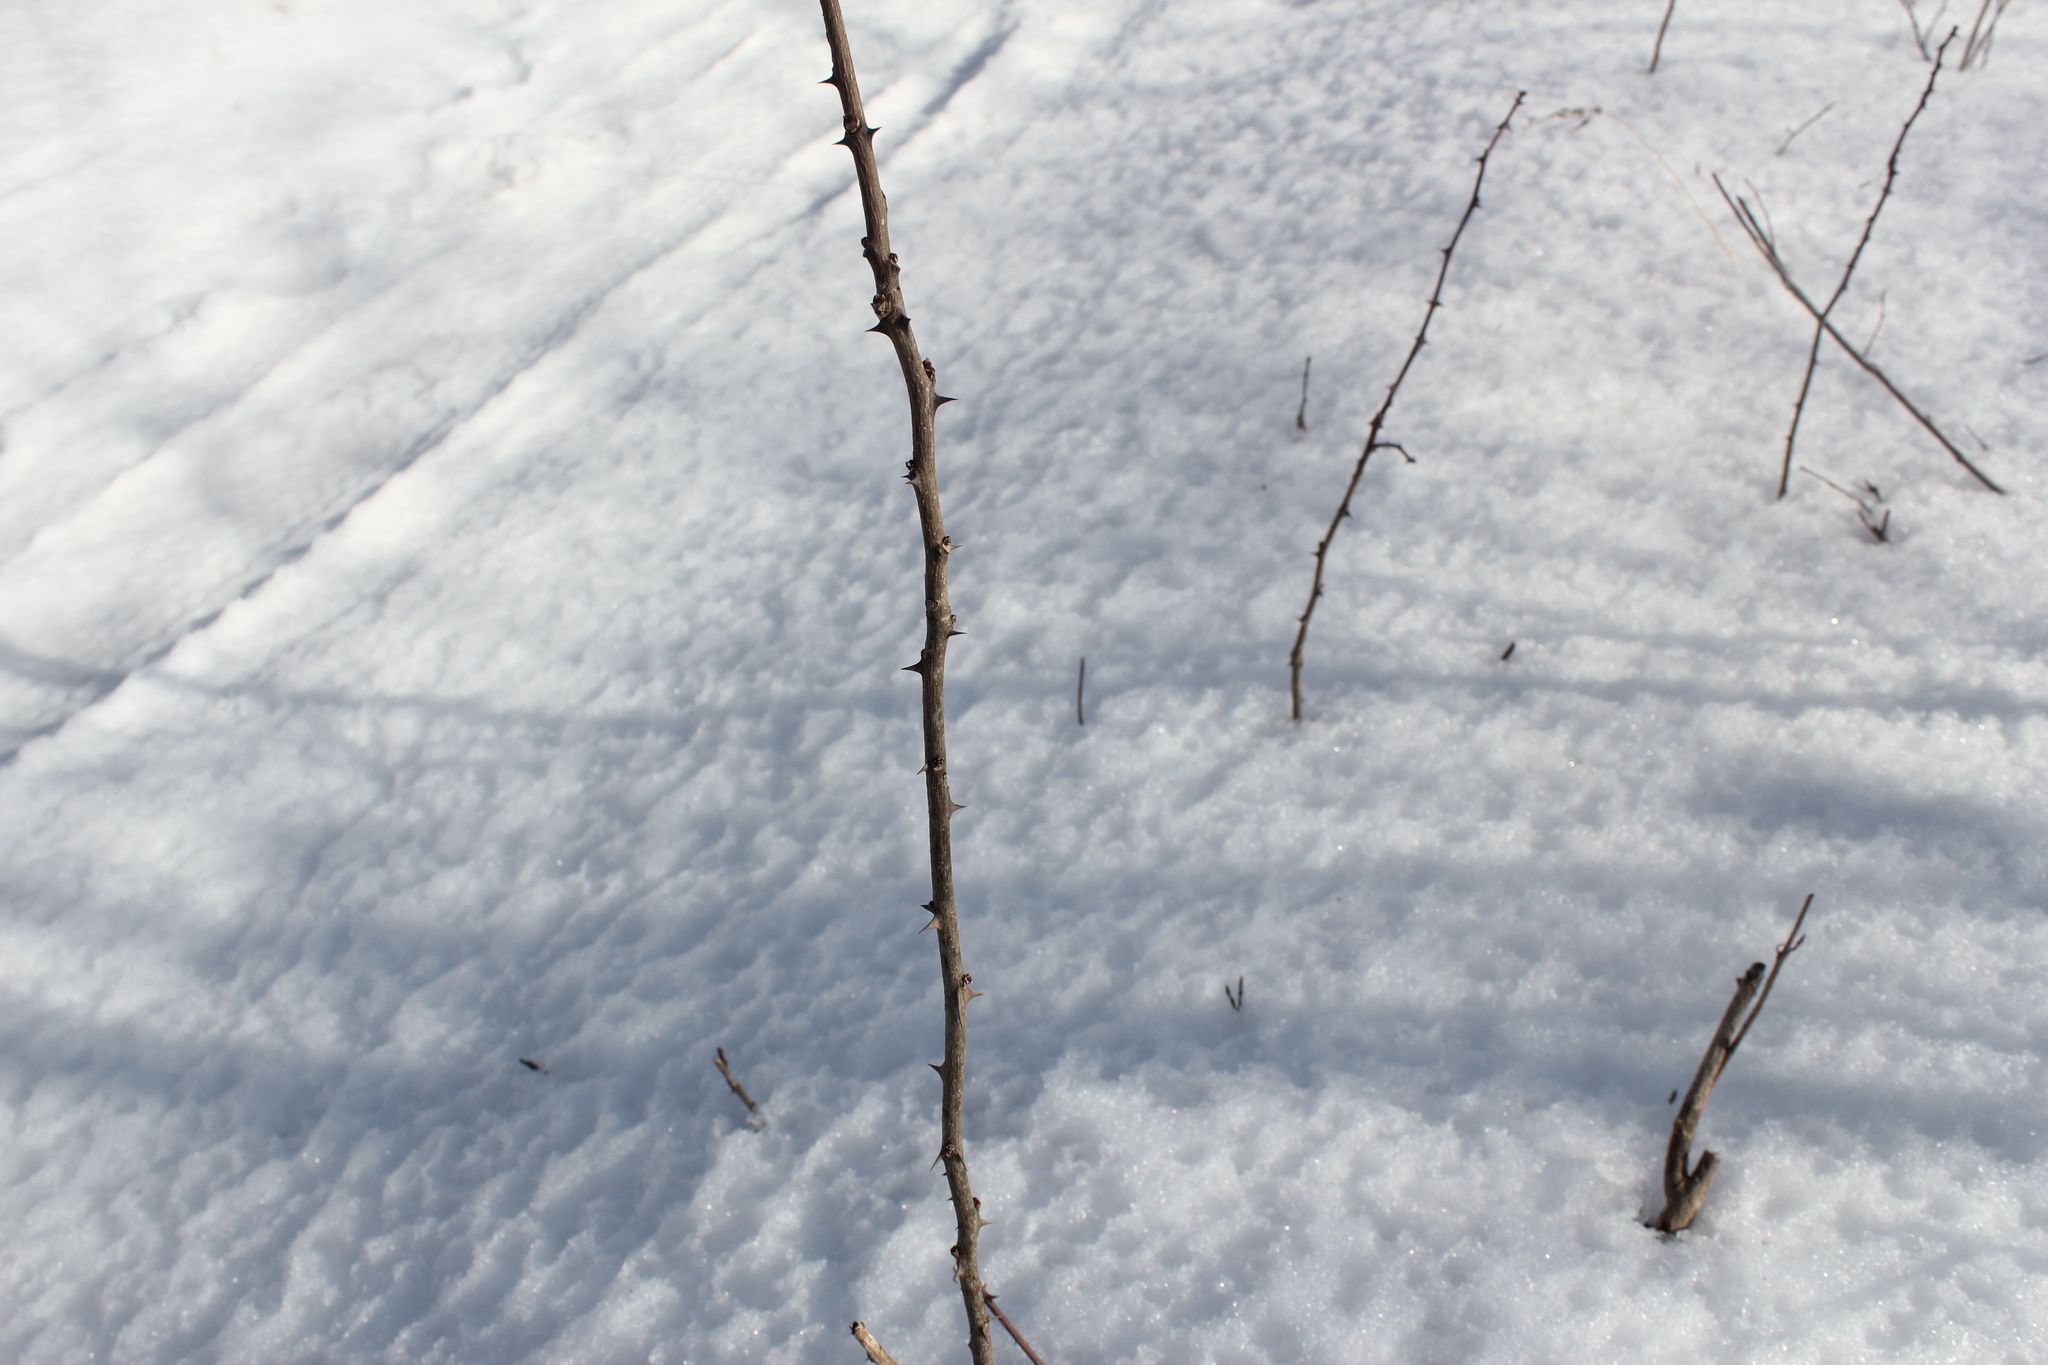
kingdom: Plantae
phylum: Tracheophyta
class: Magnoliopsida
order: Sapindales
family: Rutaceae
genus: Zanthoxylum
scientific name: Zanthoxylum americanum
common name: Northern prickly-ash
